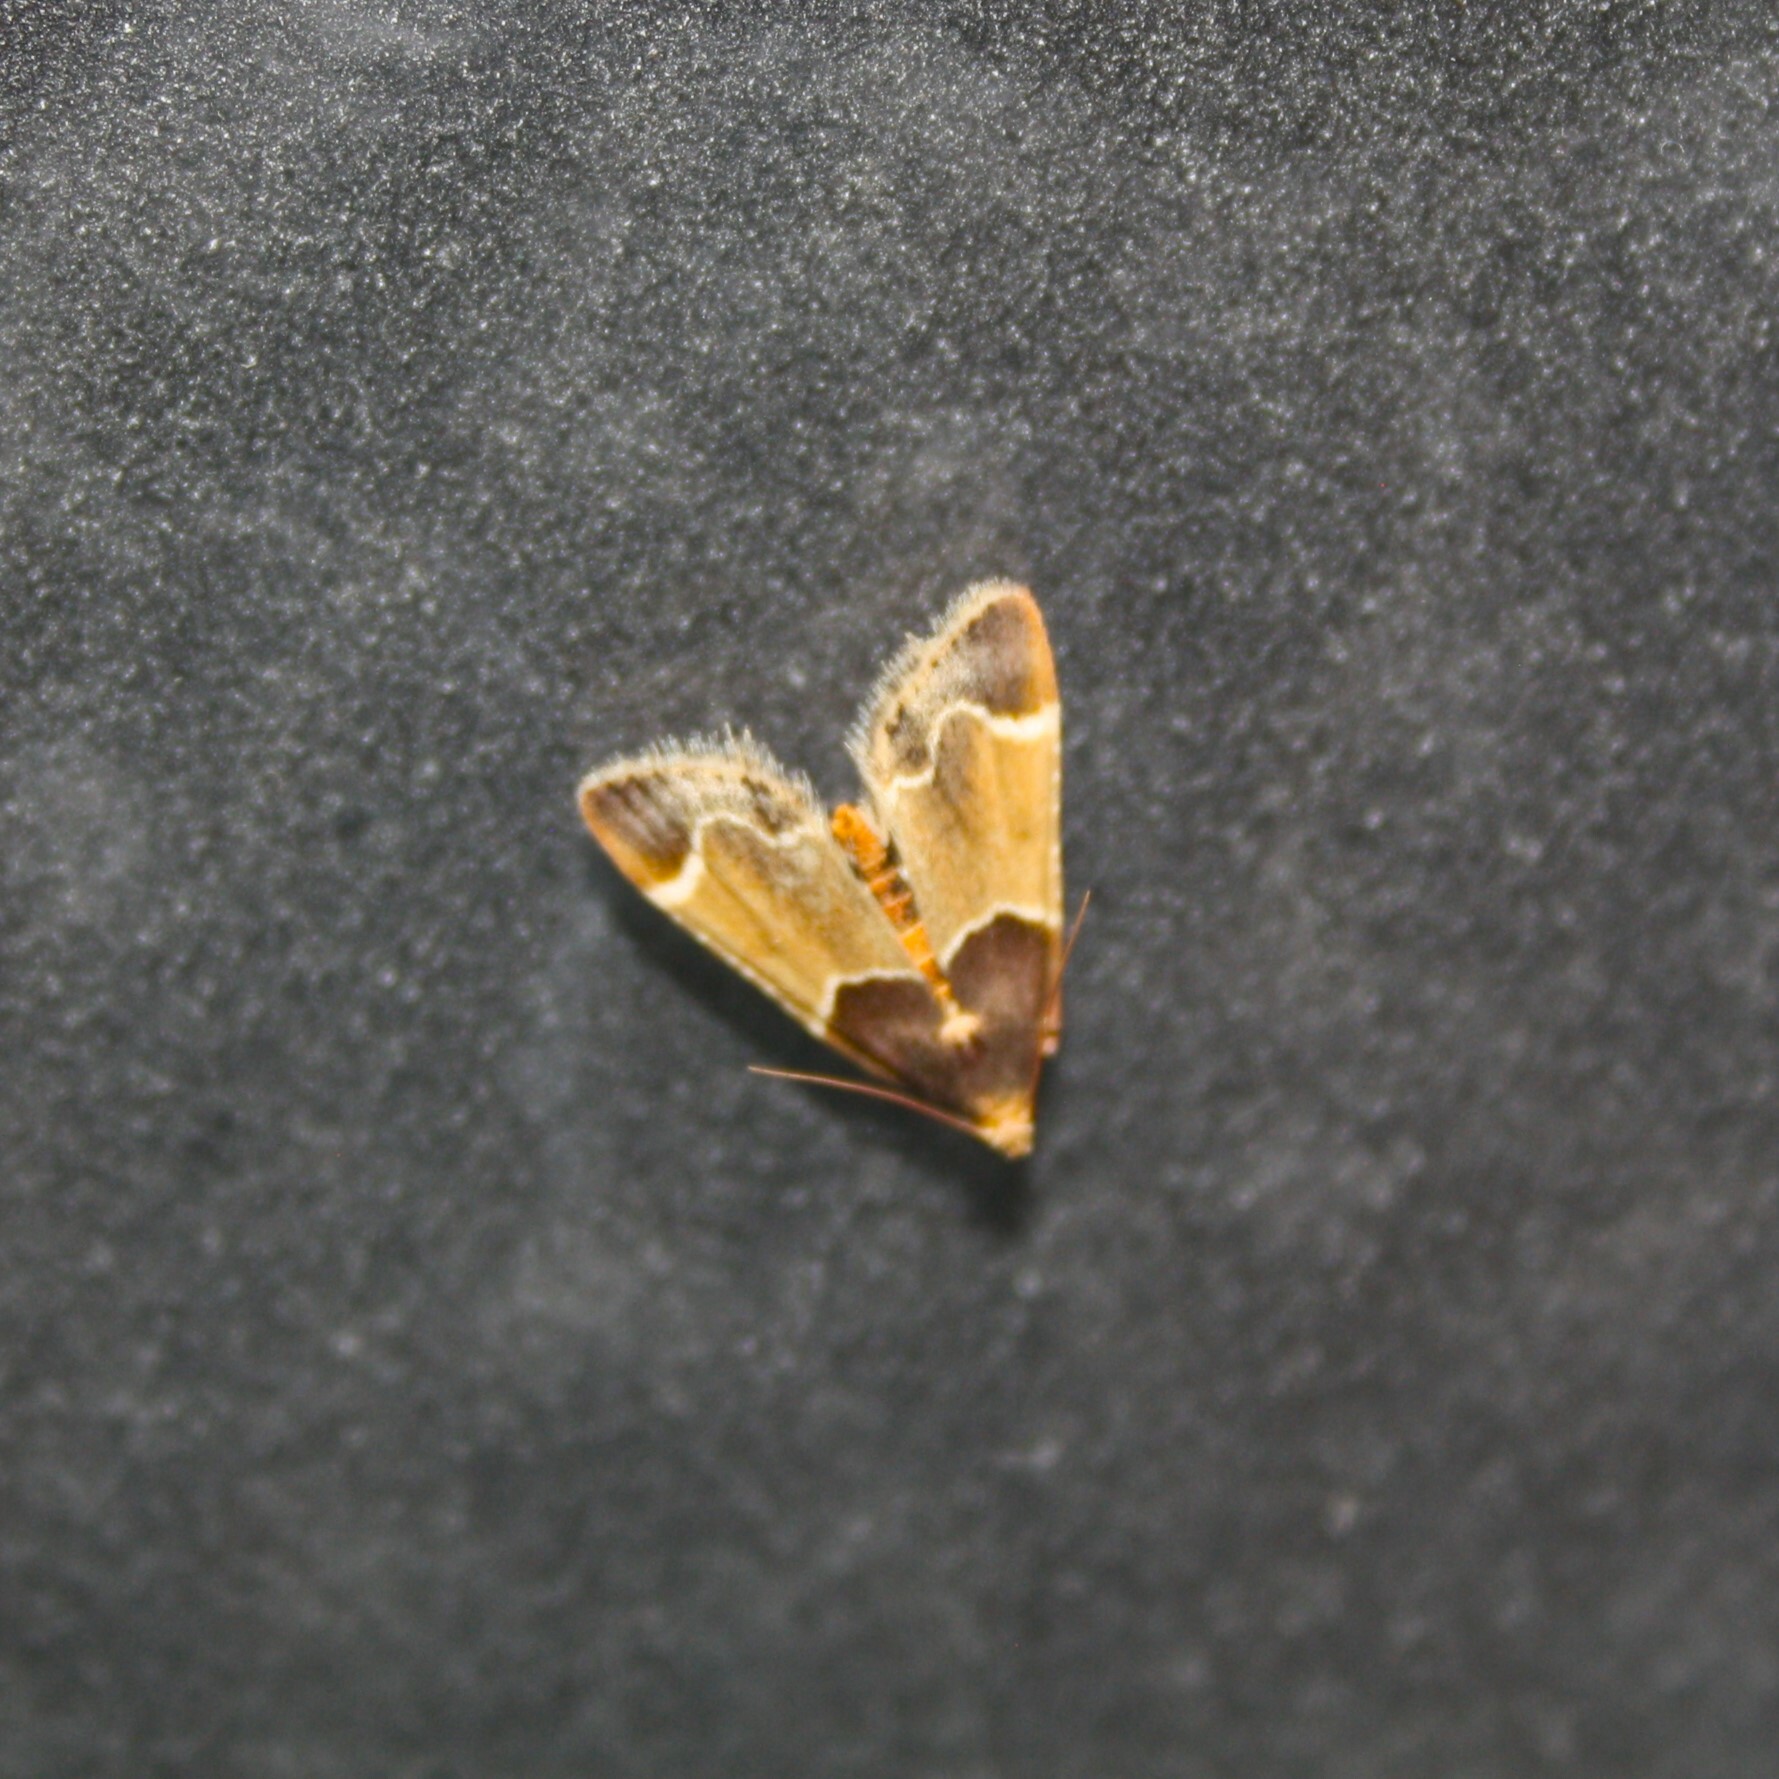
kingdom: Animalia
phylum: Arthropoda
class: Insecta
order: Lepidoptera
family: Pyralidae
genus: Pyralis
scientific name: Pyralis farinalis
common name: Meal moth
